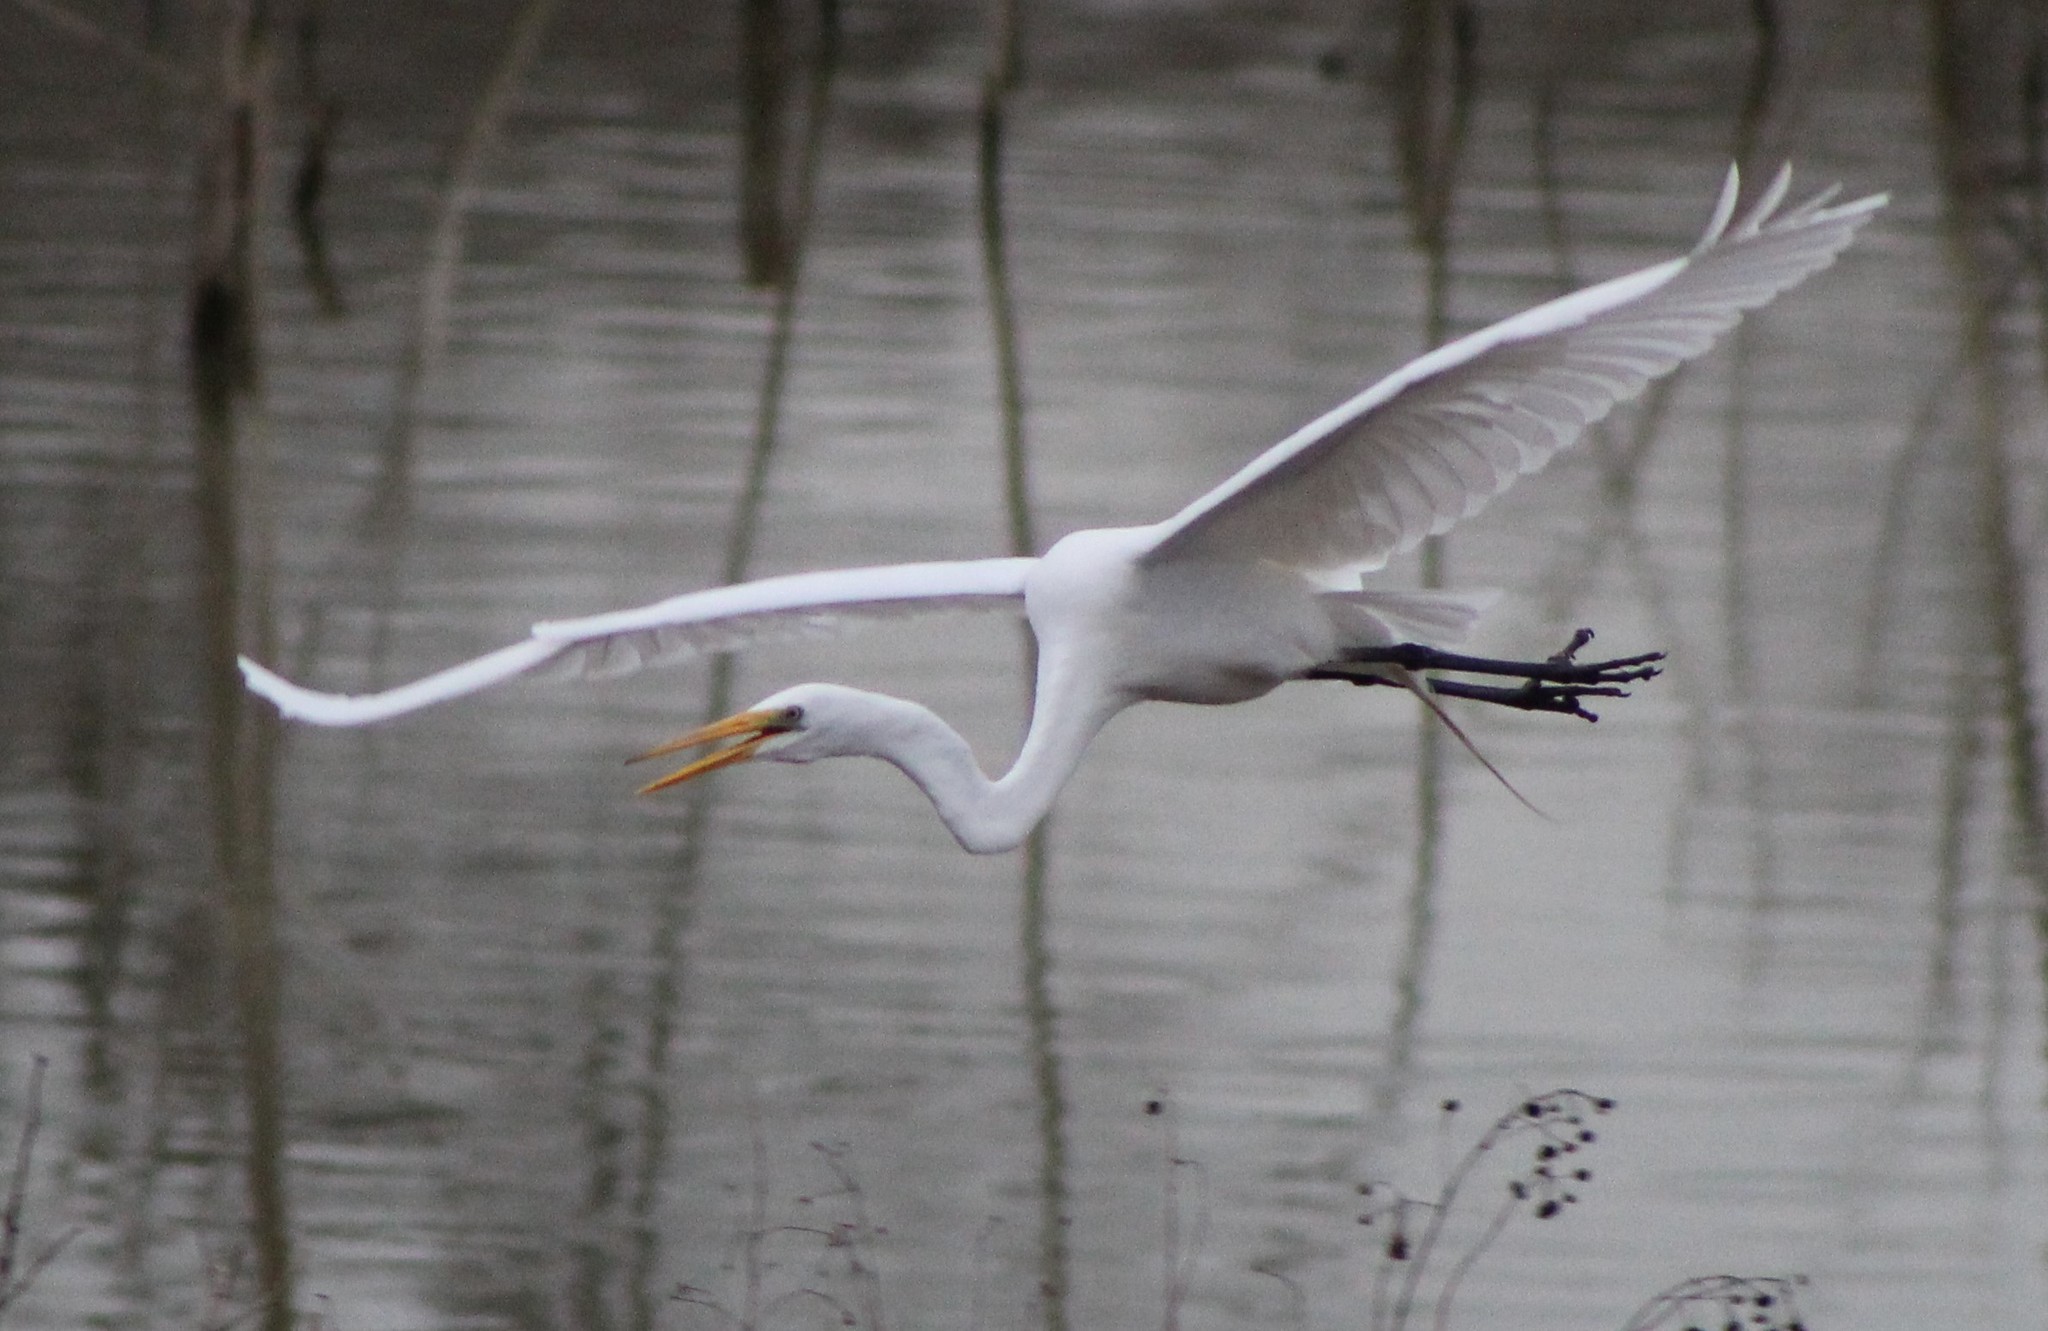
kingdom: Animalia
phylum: Chordata
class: Aves
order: Pelecaniformes
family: Ardeidae
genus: Ardea
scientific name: Ardea alba
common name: Great egret
